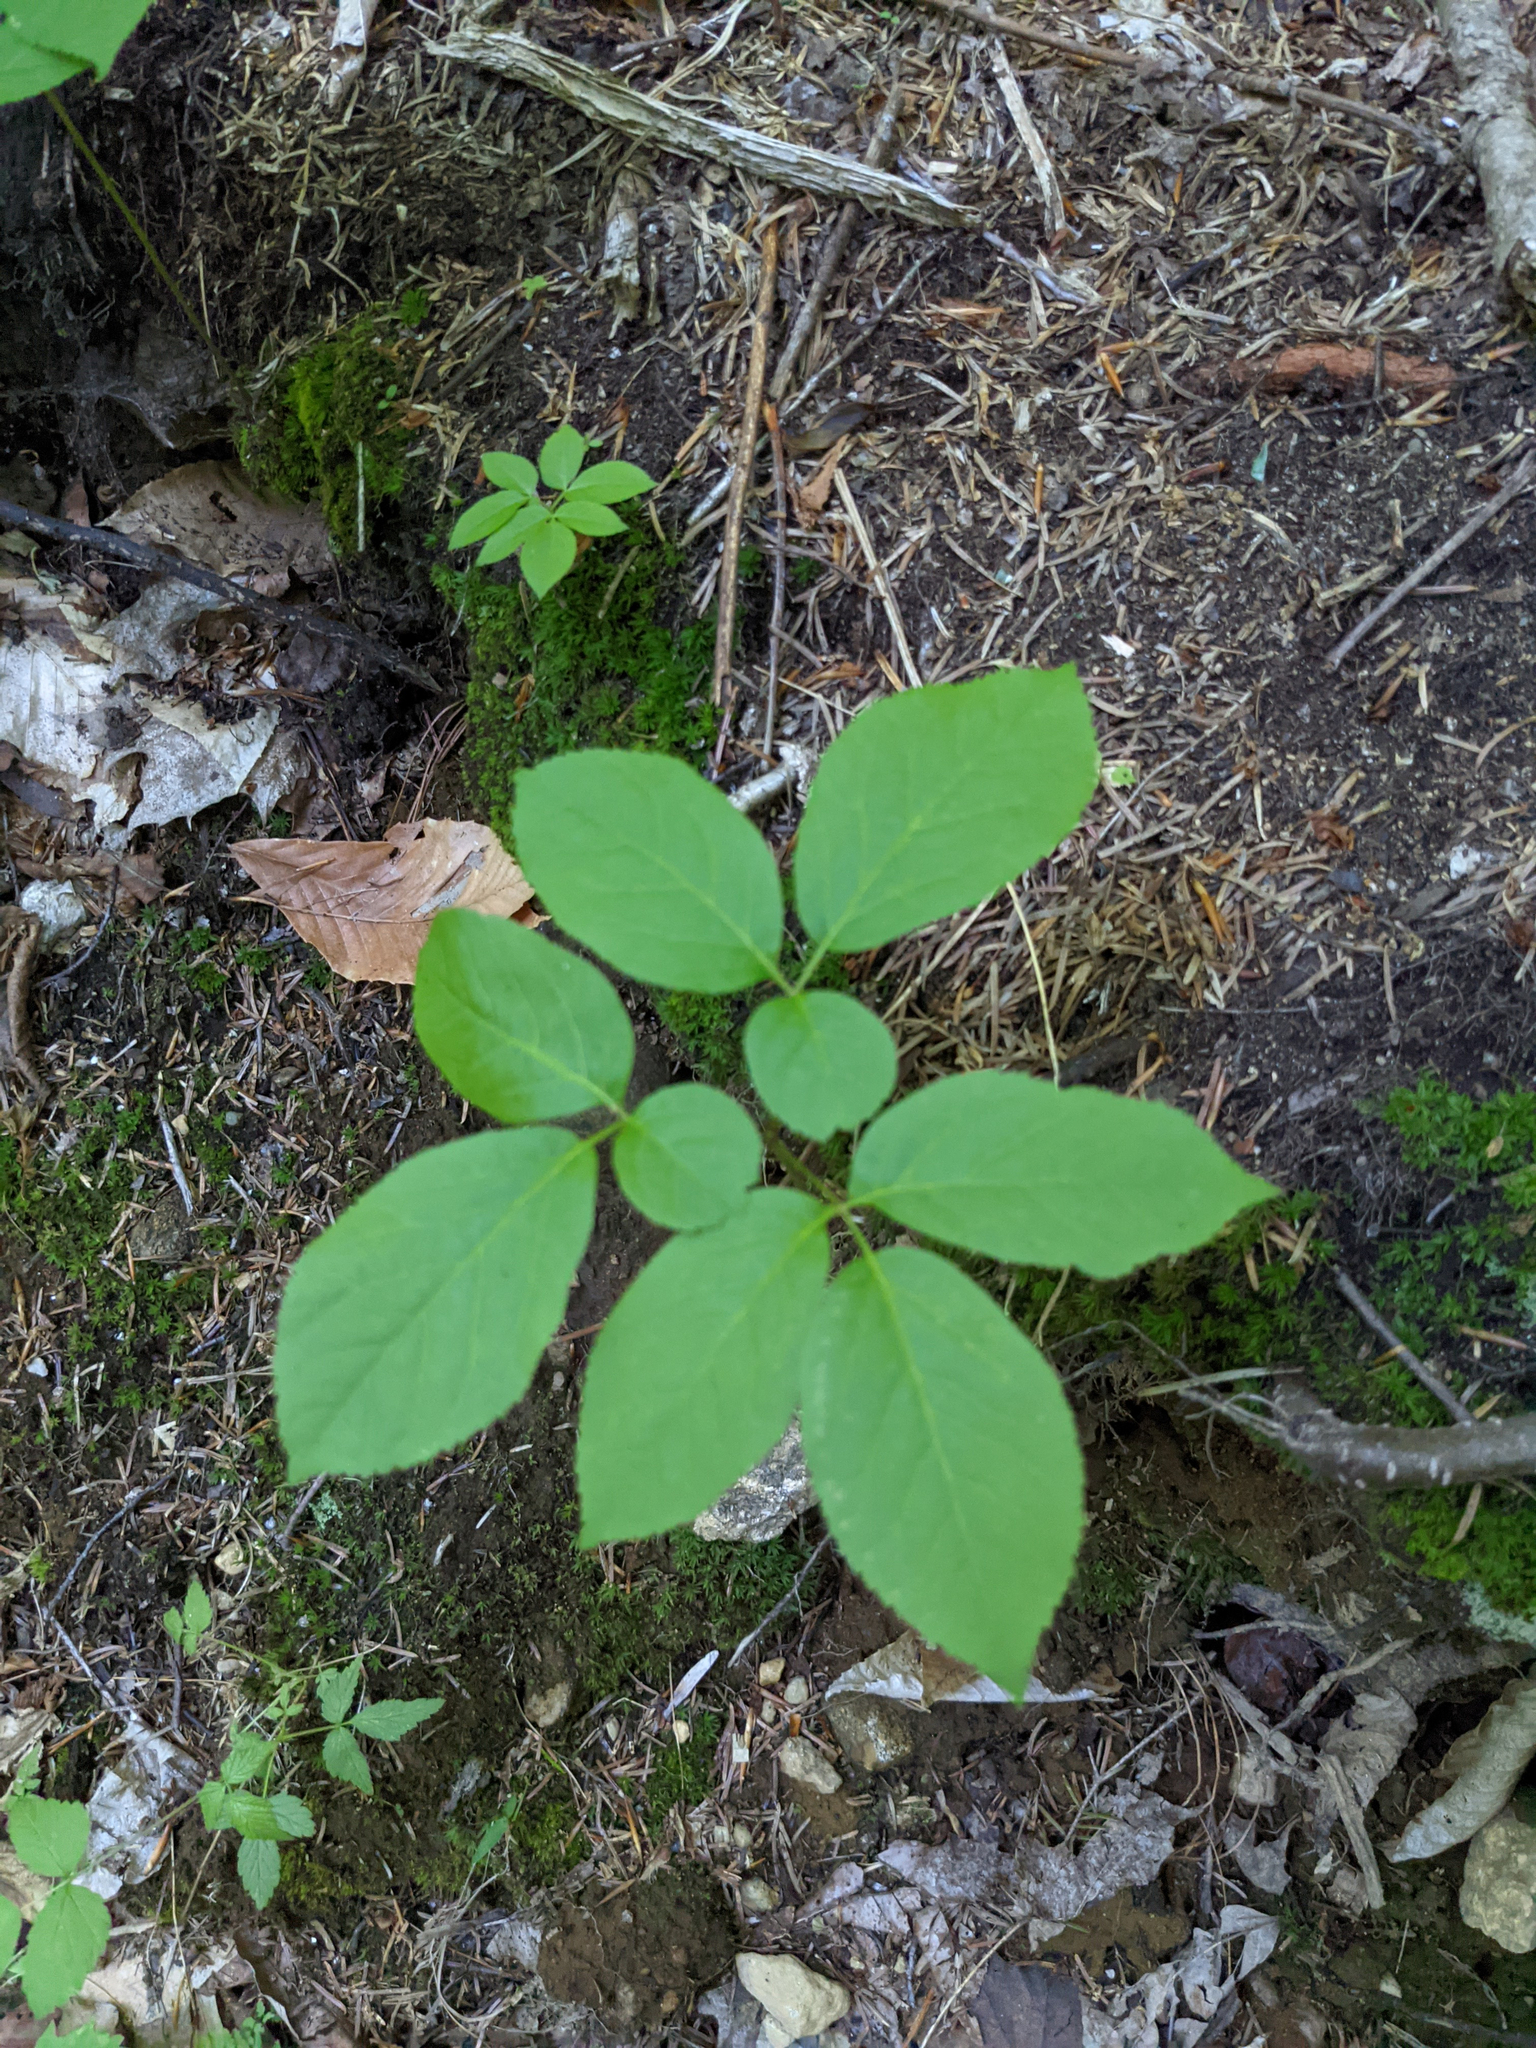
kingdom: Plantae
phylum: Tracheophyta
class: Magnoliopsida
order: Apiales
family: Araliaceae
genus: Aralia
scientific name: Aralia nudicaulis
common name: Wild sarsaparilla
